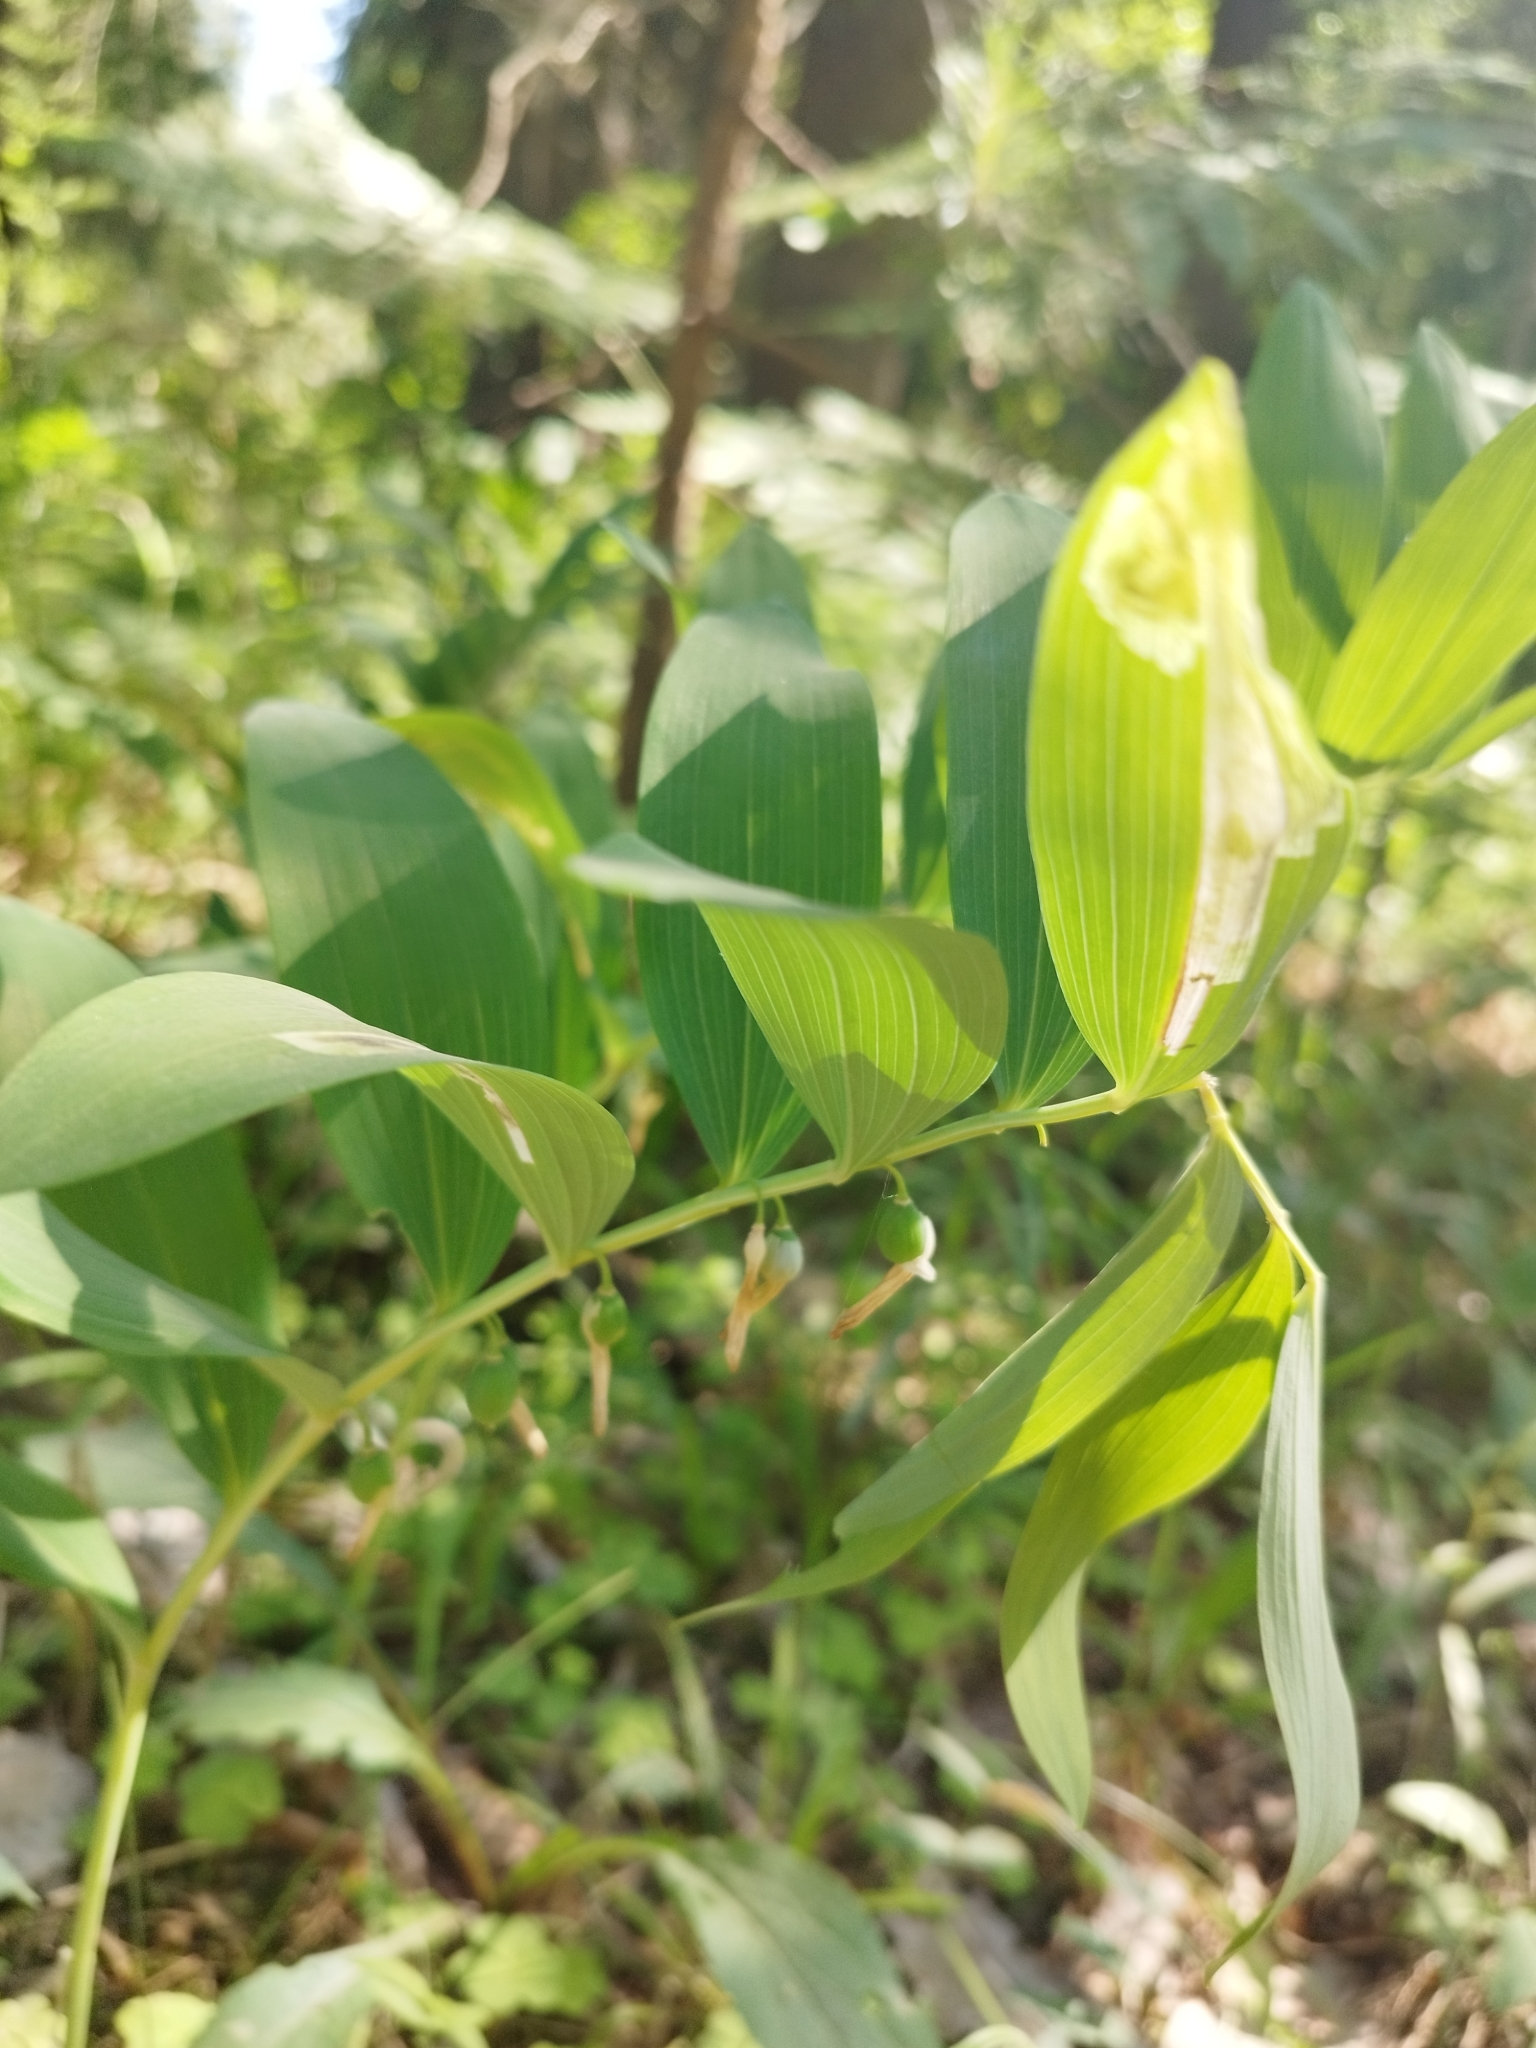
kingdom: Plantae
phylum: Tracheophyta
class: Liliopsida
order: Asparagales
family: Asparagaceae
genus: Polygonatum
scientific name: Polygonatum odoratum
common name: Angular solomon's-seal
